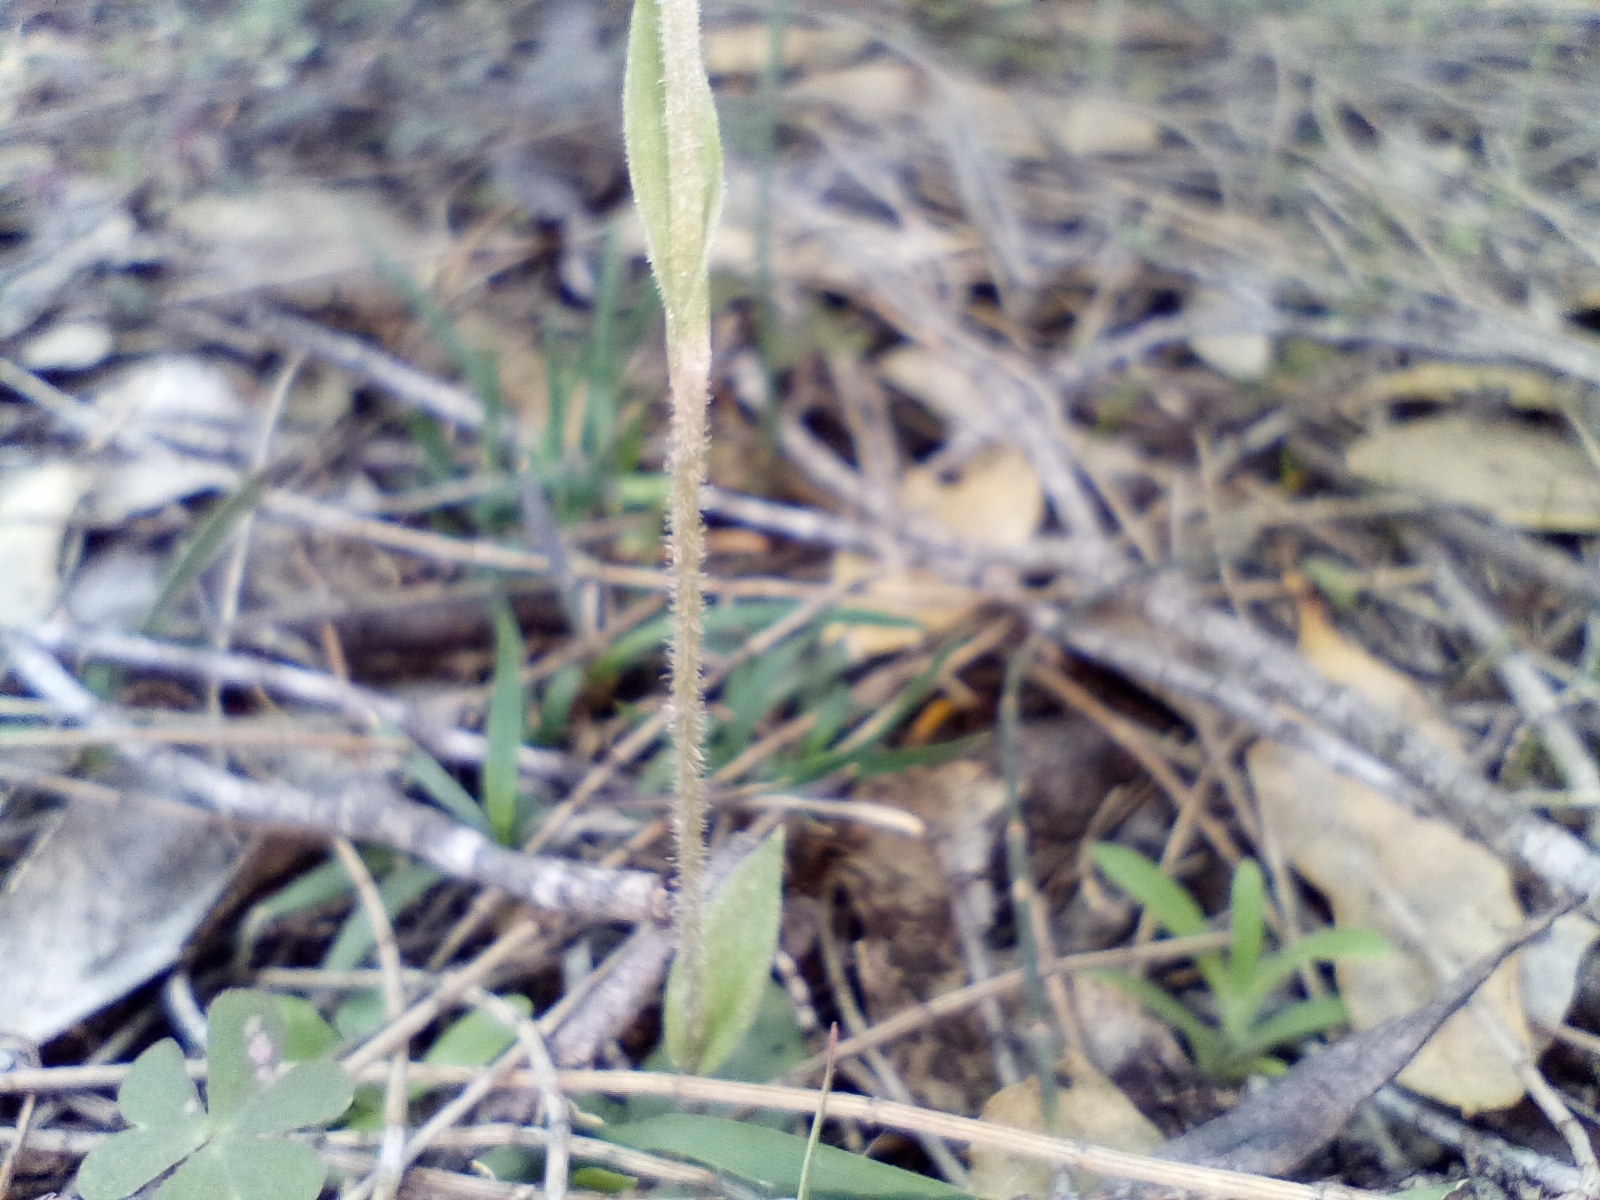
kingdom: Plantae
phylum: Tracheophyta
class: Liliopsida
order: Asparagales
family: Orchidaceae
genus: Pterostylis
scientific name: Pterostylis setulosa
